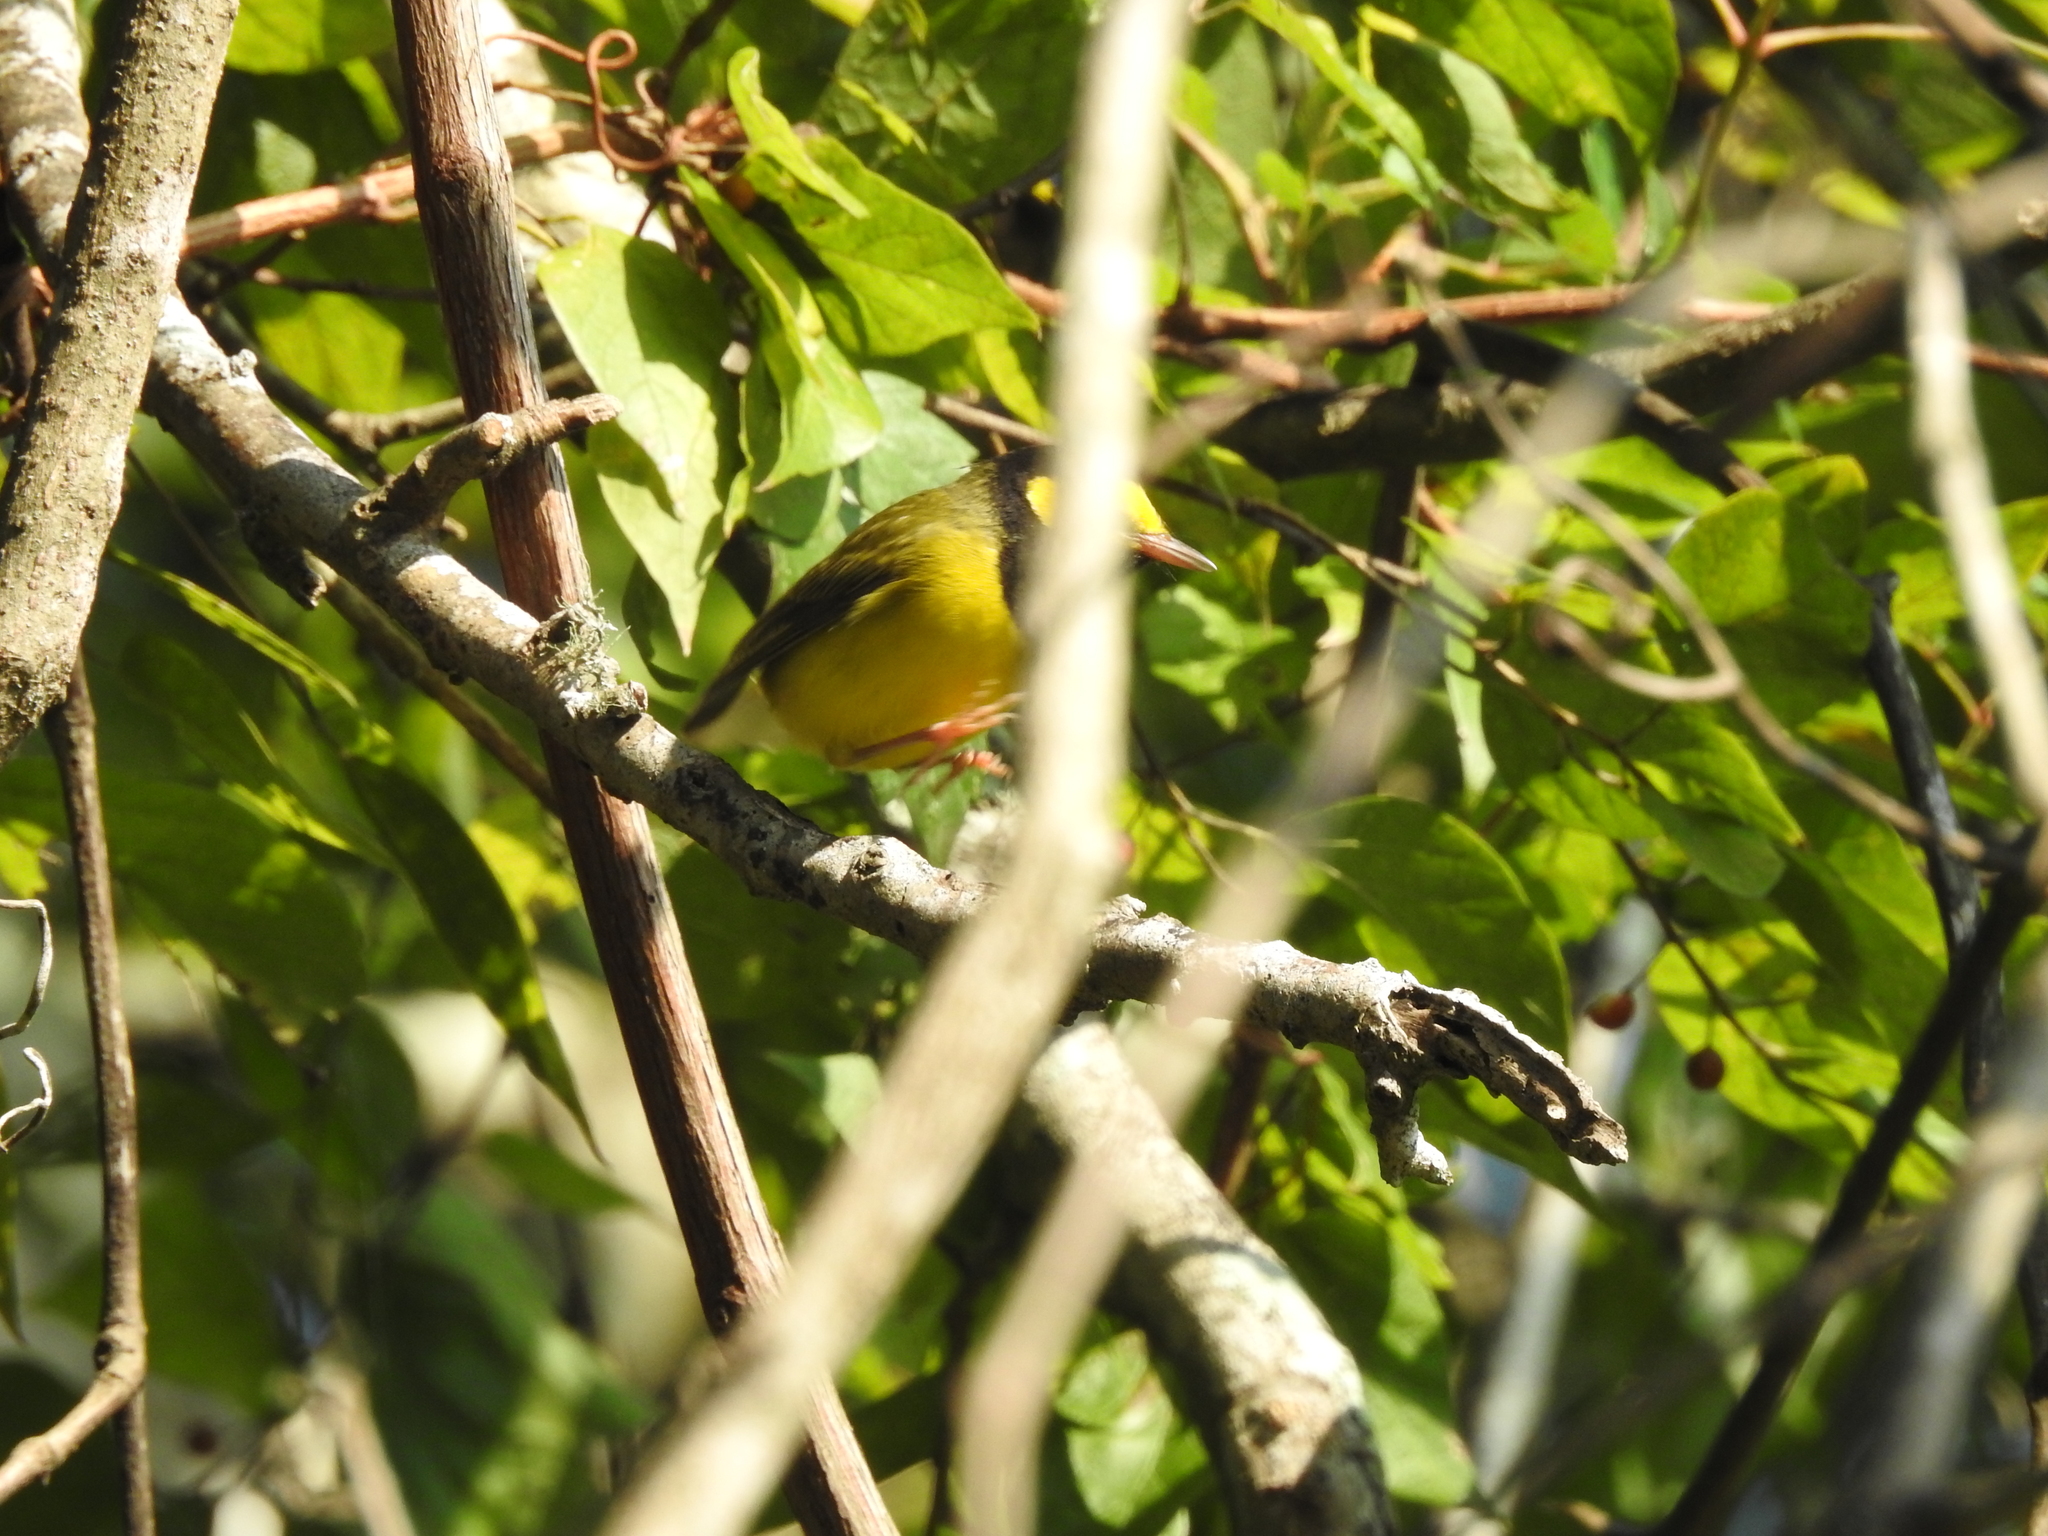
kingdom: Animalia
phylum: Chordata
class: Aves
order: Passeriformes
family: Parulidae
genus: Setophaga
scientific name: Setophaga citrina
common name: Hooded warbler
